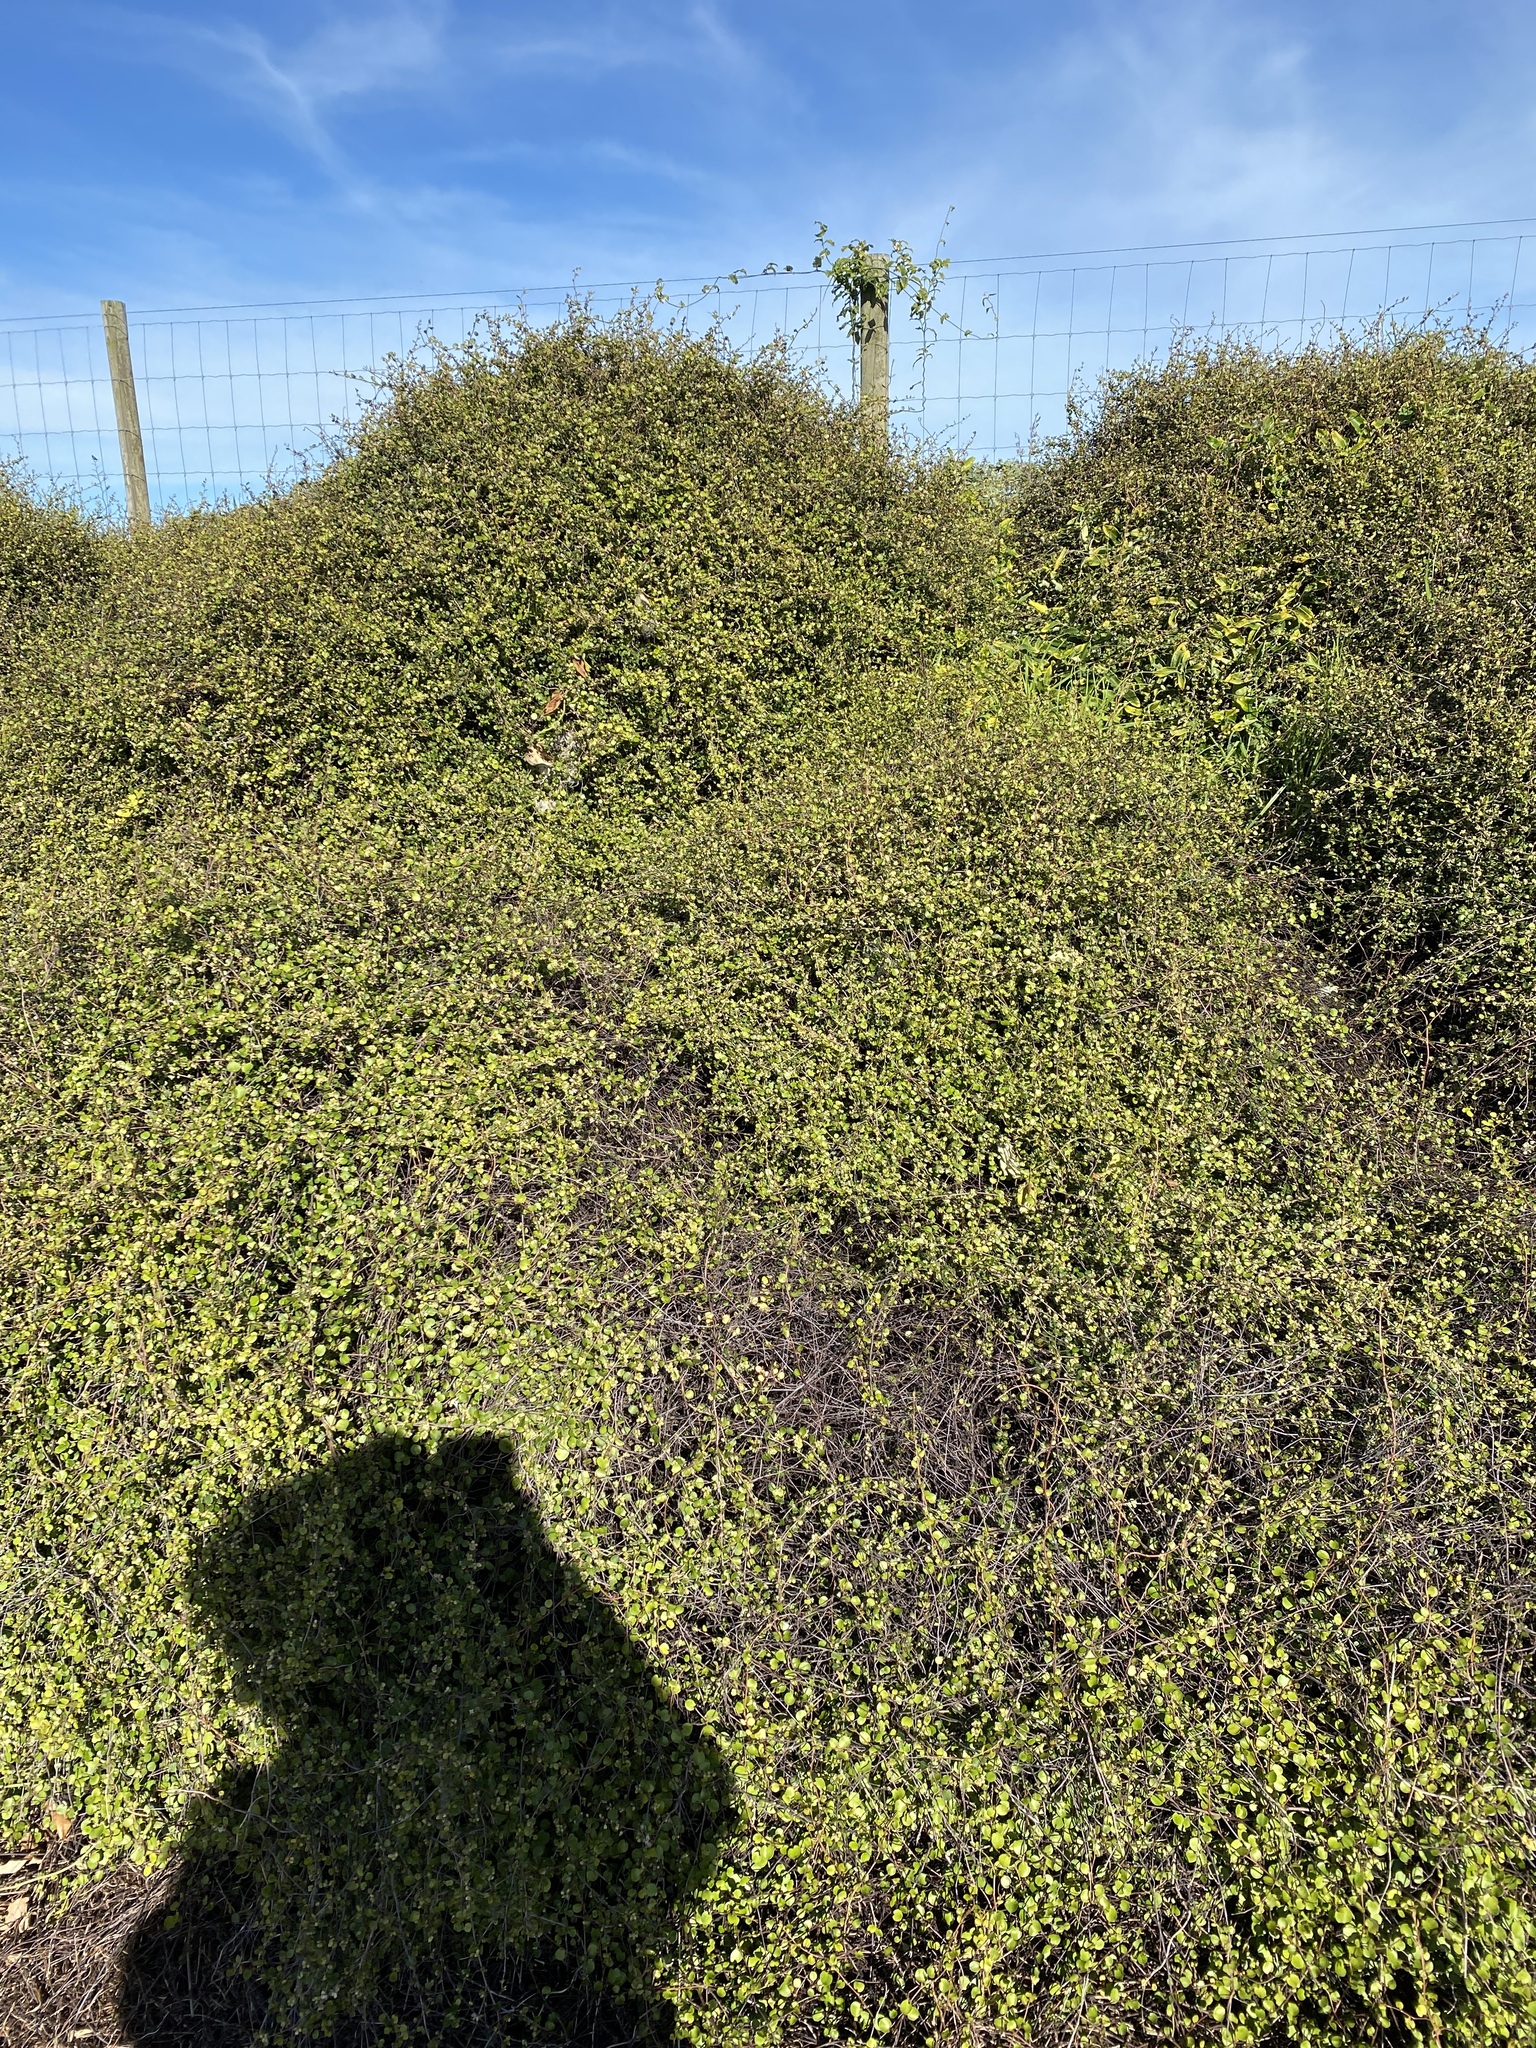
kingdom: Plantae
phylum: Tracheophyta
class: Magnoliopsida
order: Caryophyllales
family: Polygonaceae
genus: Muehlenbeckia
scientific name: Muehlenbeckia complexa
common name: Wireplant
